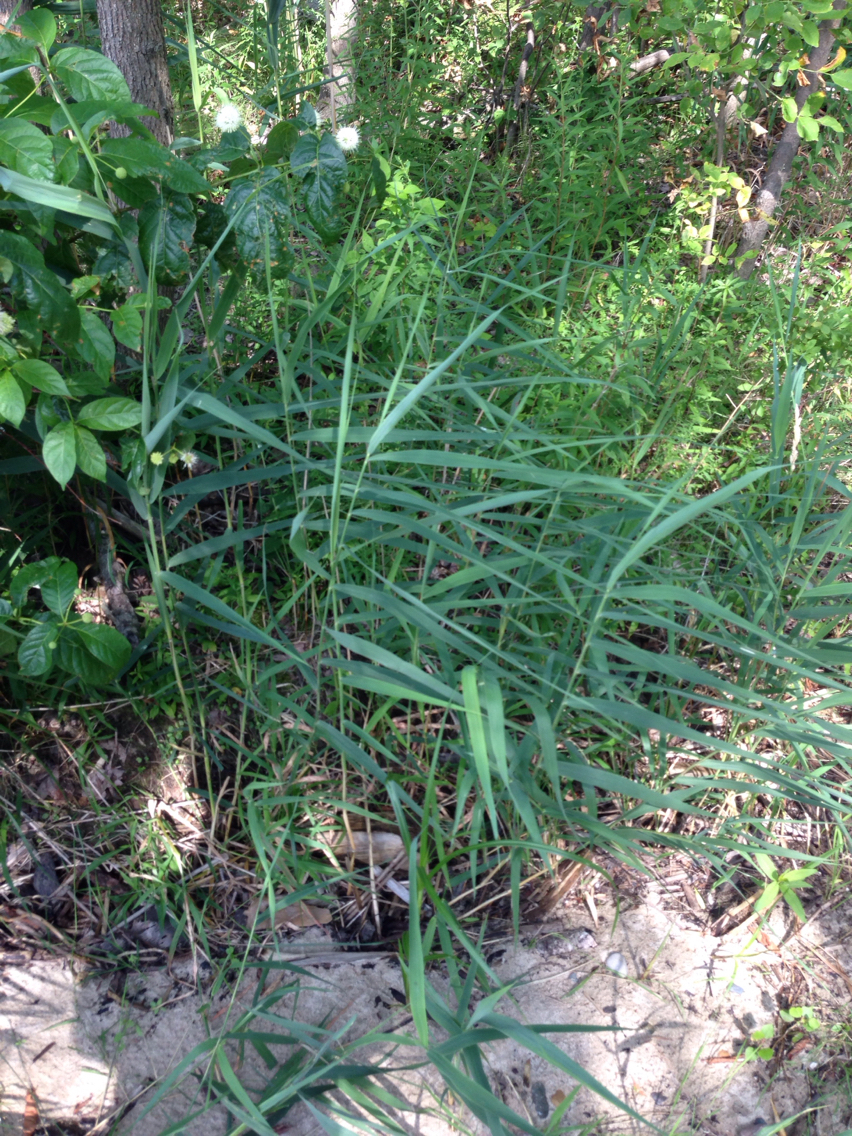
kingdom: Plantae
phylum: Tracheophyta
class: Magnoliopsida
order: Gentianales
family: Rubiaceae
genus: Cephalanthus
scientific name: Cephalanthus occidentalis
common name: Button-willow
